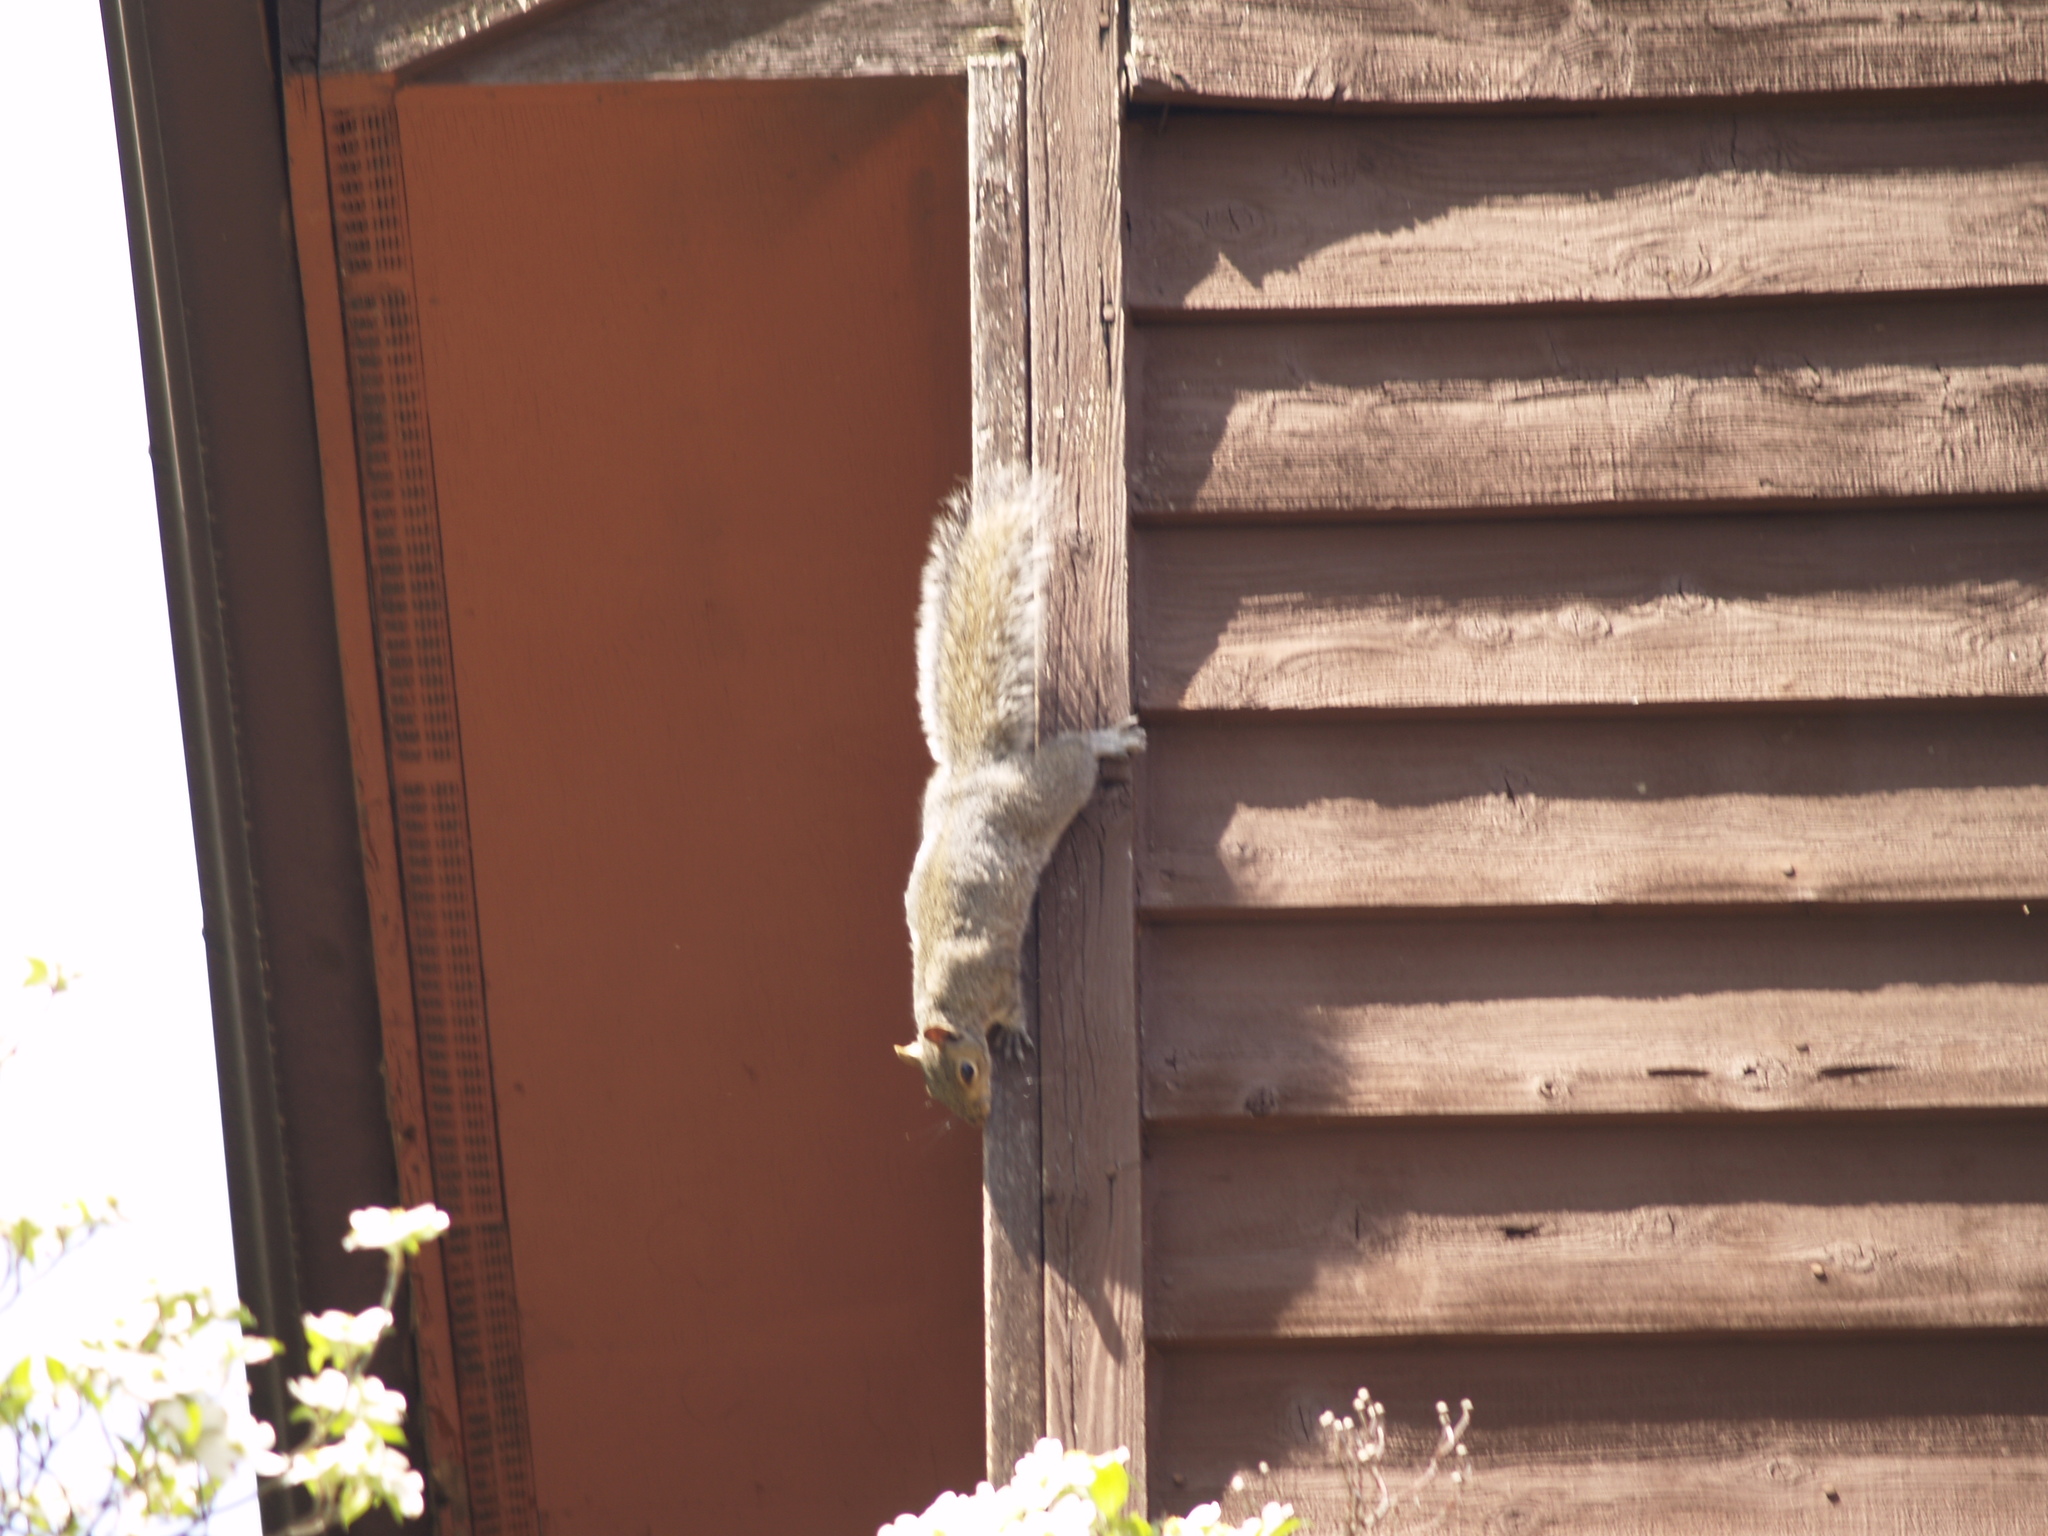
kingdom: Animalia
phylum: Chordata
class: Mammalia
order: Rodentia
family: Sciuridae
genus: Sciurus
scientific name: Sciurus carolinensis
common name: Eastern gray squirrel
